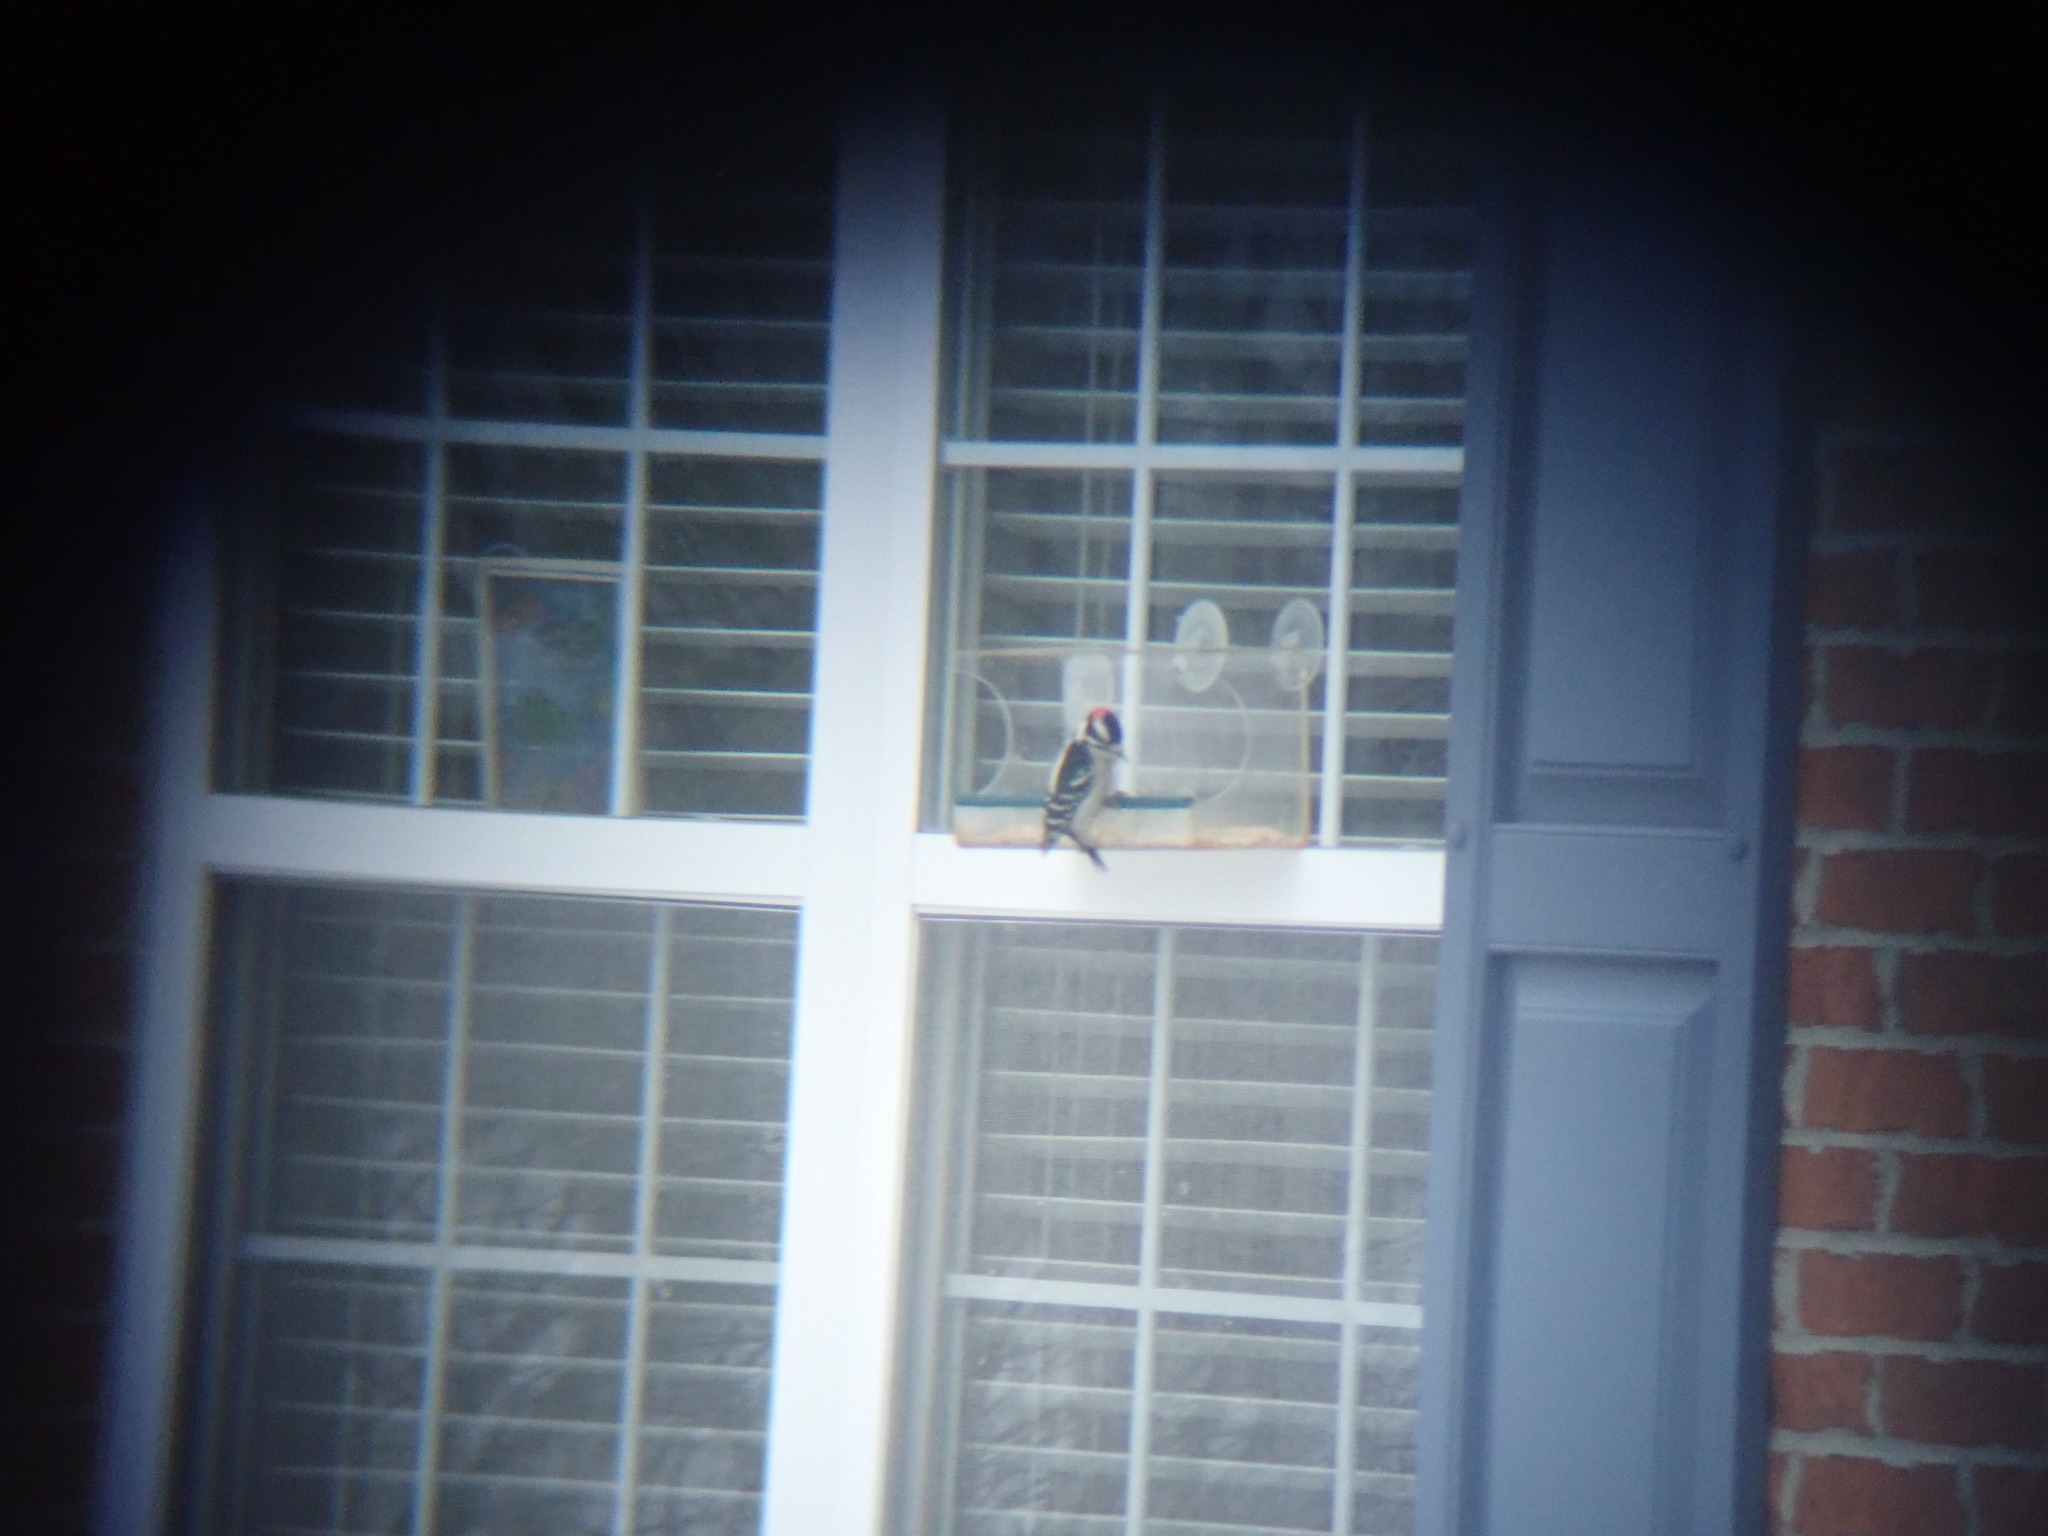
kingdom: Animalia
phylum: Chordata
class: Aves
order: Piciformes
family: Picidae
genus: Dryobates
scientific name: Dryobates pubescens
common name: Downy woodpecker
